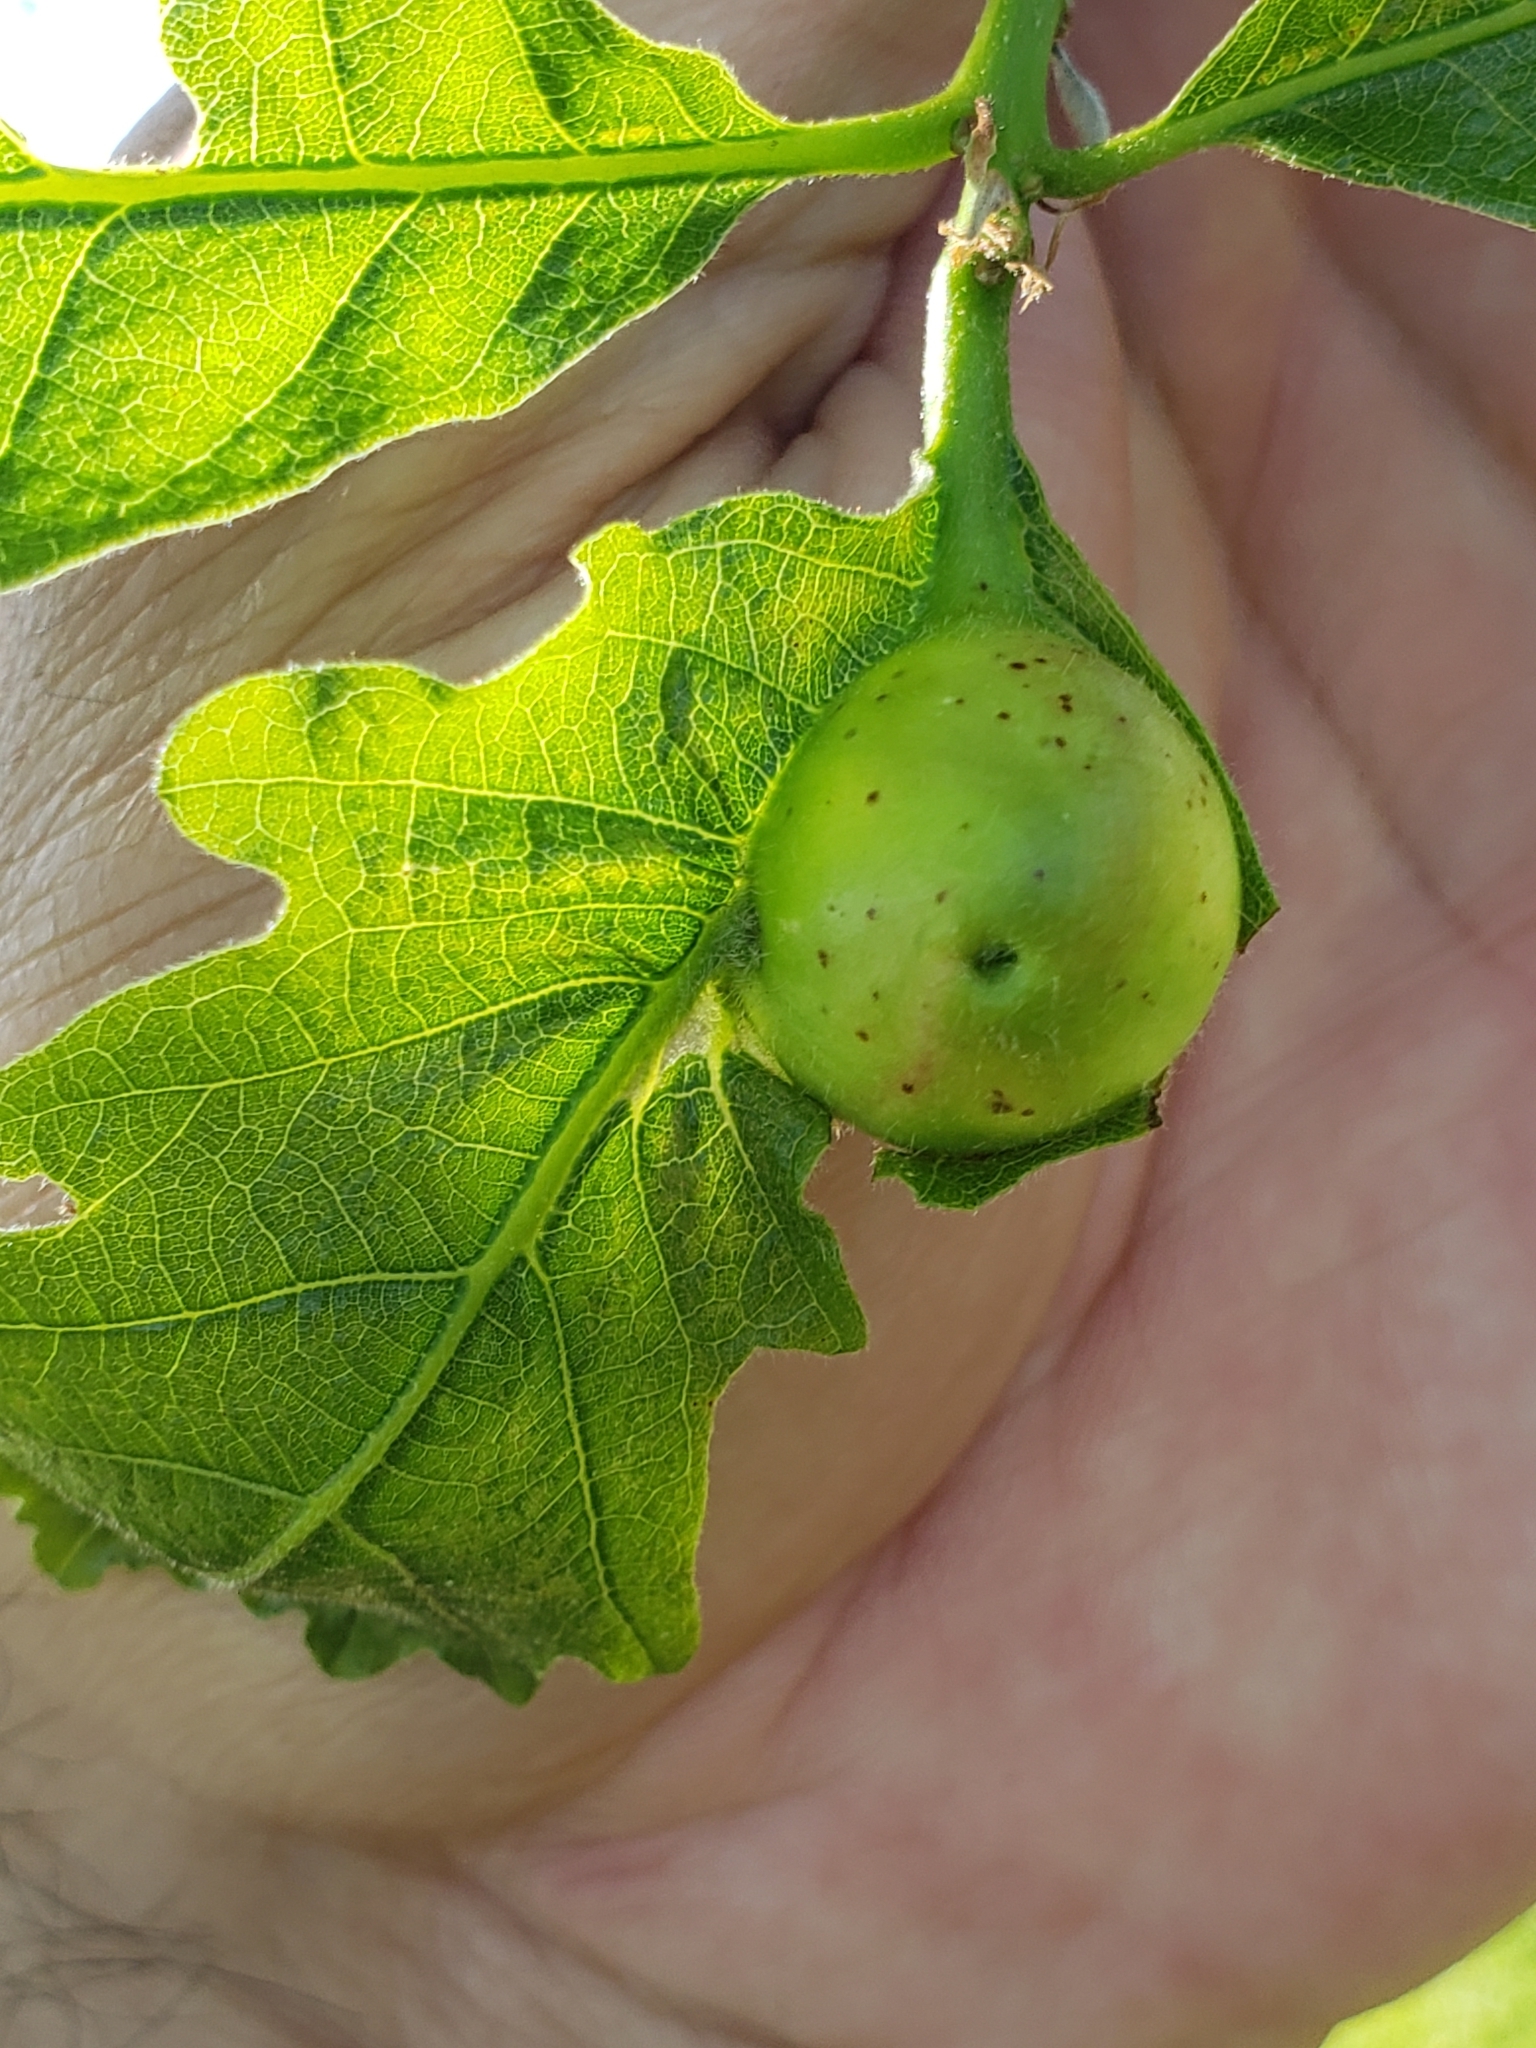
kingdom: Animalia
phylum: Arthropoda
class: Insecta
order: Hymenoptera
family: Cynipidae
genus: Andricus
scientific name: Andricus
